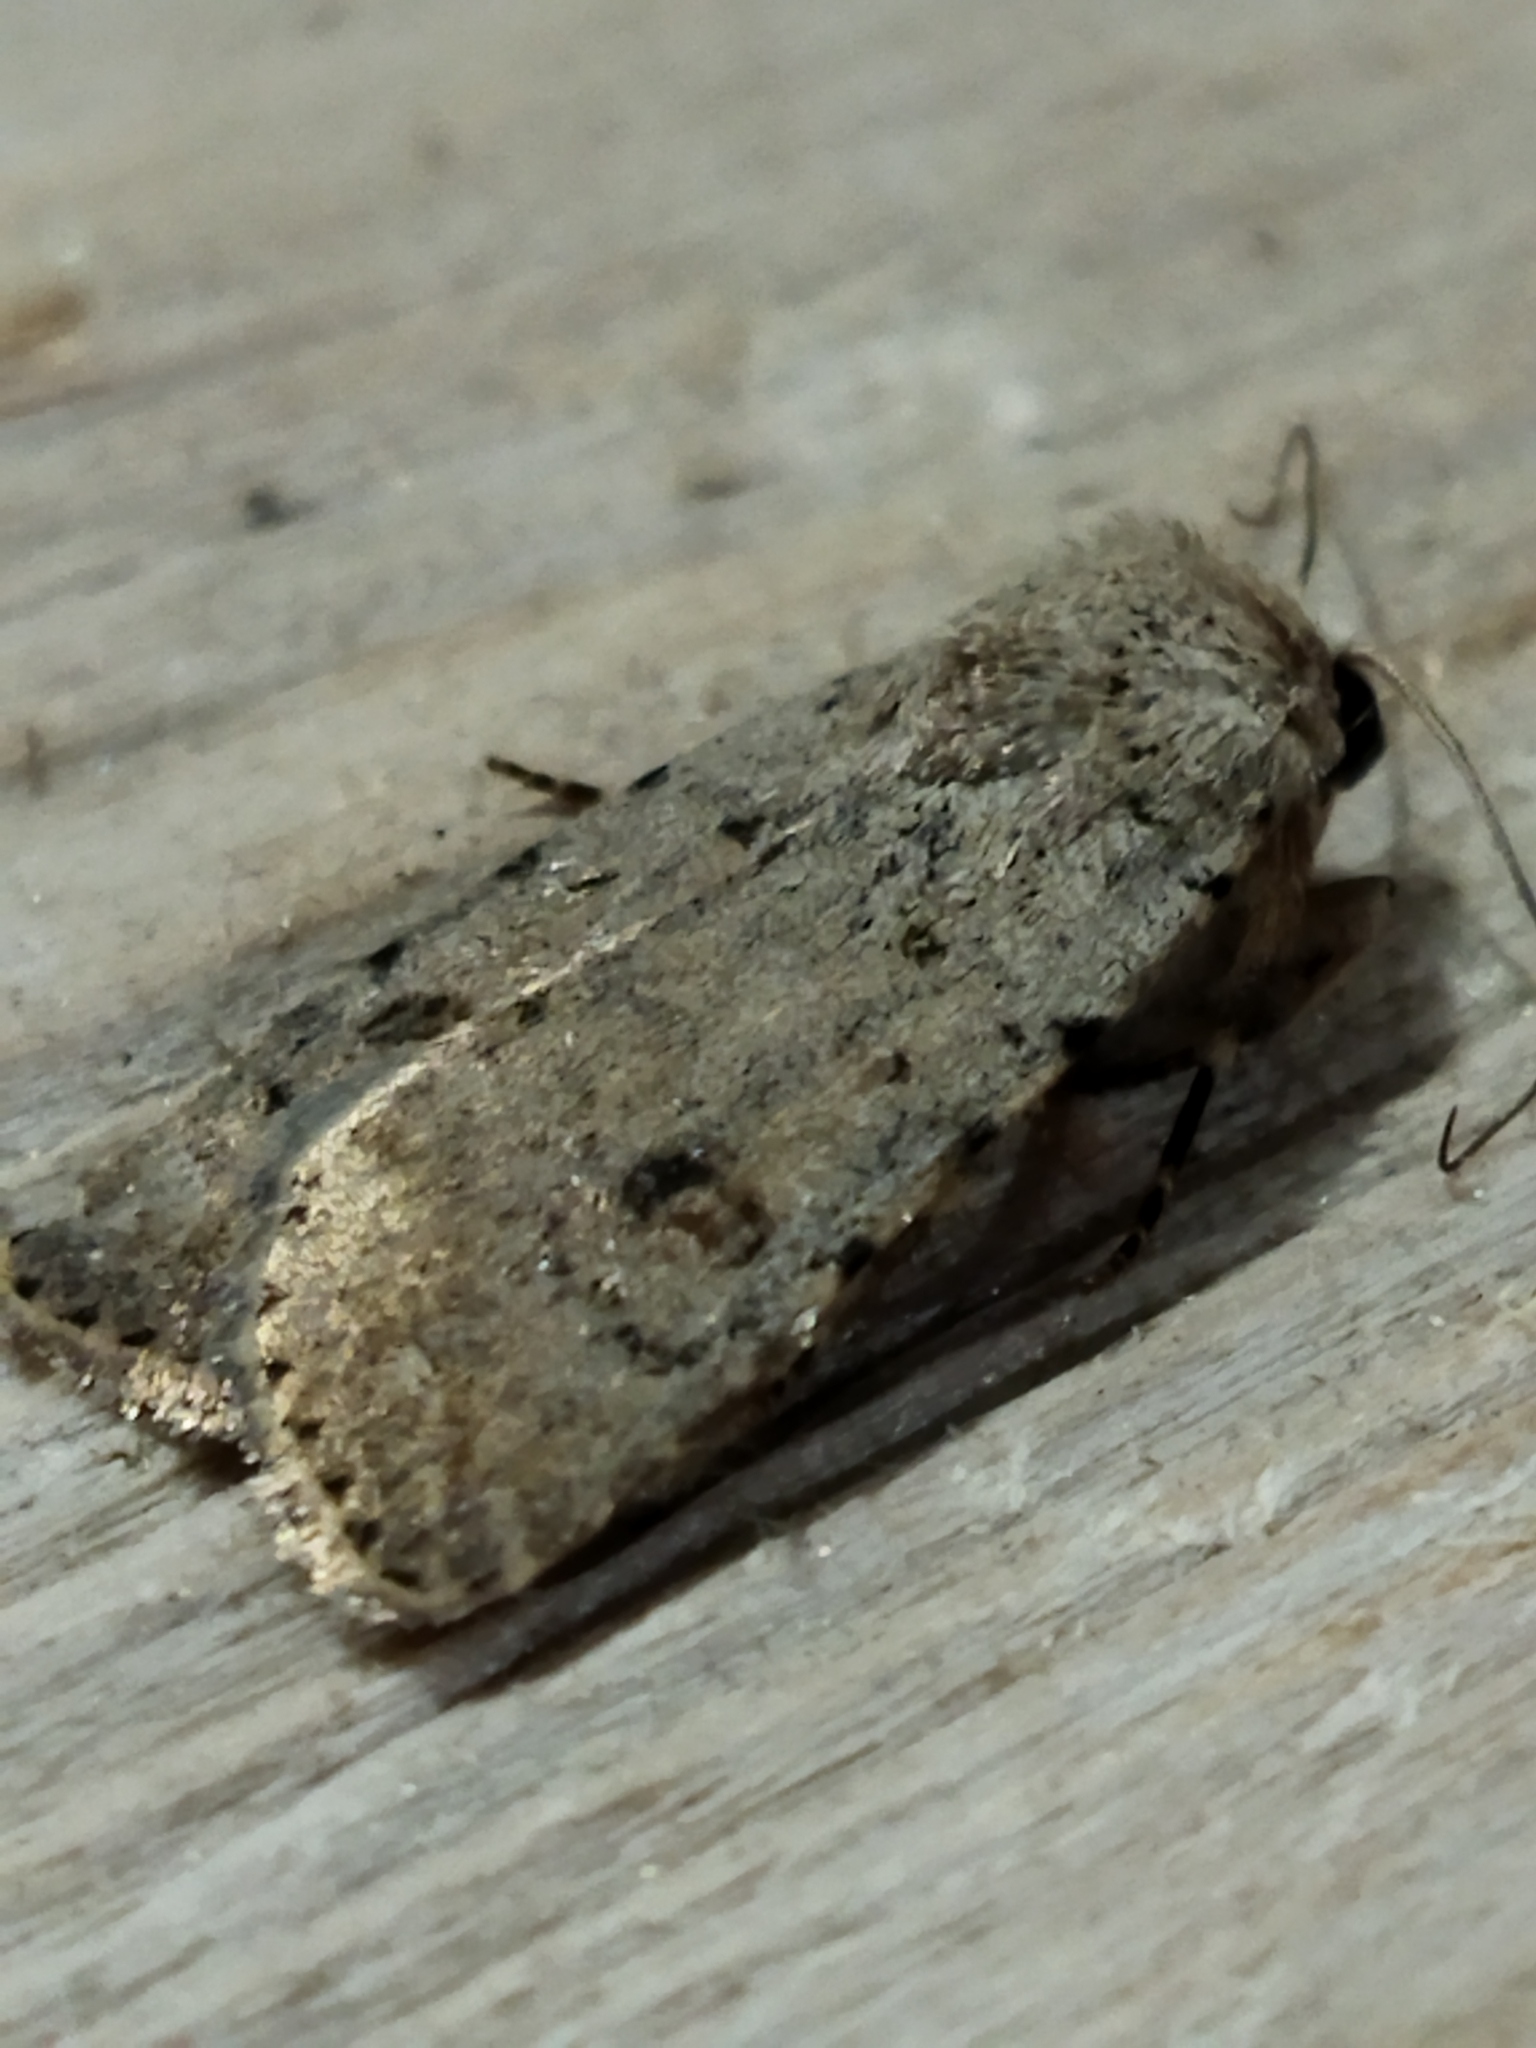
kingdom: Animalia
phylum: Arthropoda
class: Insecta
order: Lepidoptera
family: Noctuidae
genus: Caradrina
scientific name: Caradrina clavipalpis
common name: Pale mottled willow
